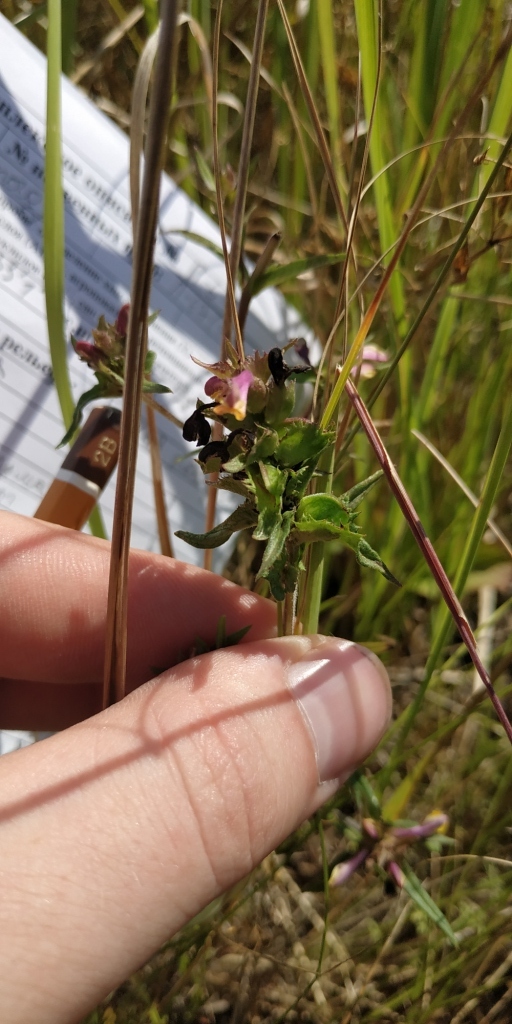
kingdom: Plantae
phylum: Tracheophyta
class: Magnoliopsida
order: Lamiales
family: Orobanchaceae
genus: Melampyrum
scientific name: Melampyrum cristatum
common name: Crested cow-wheat
